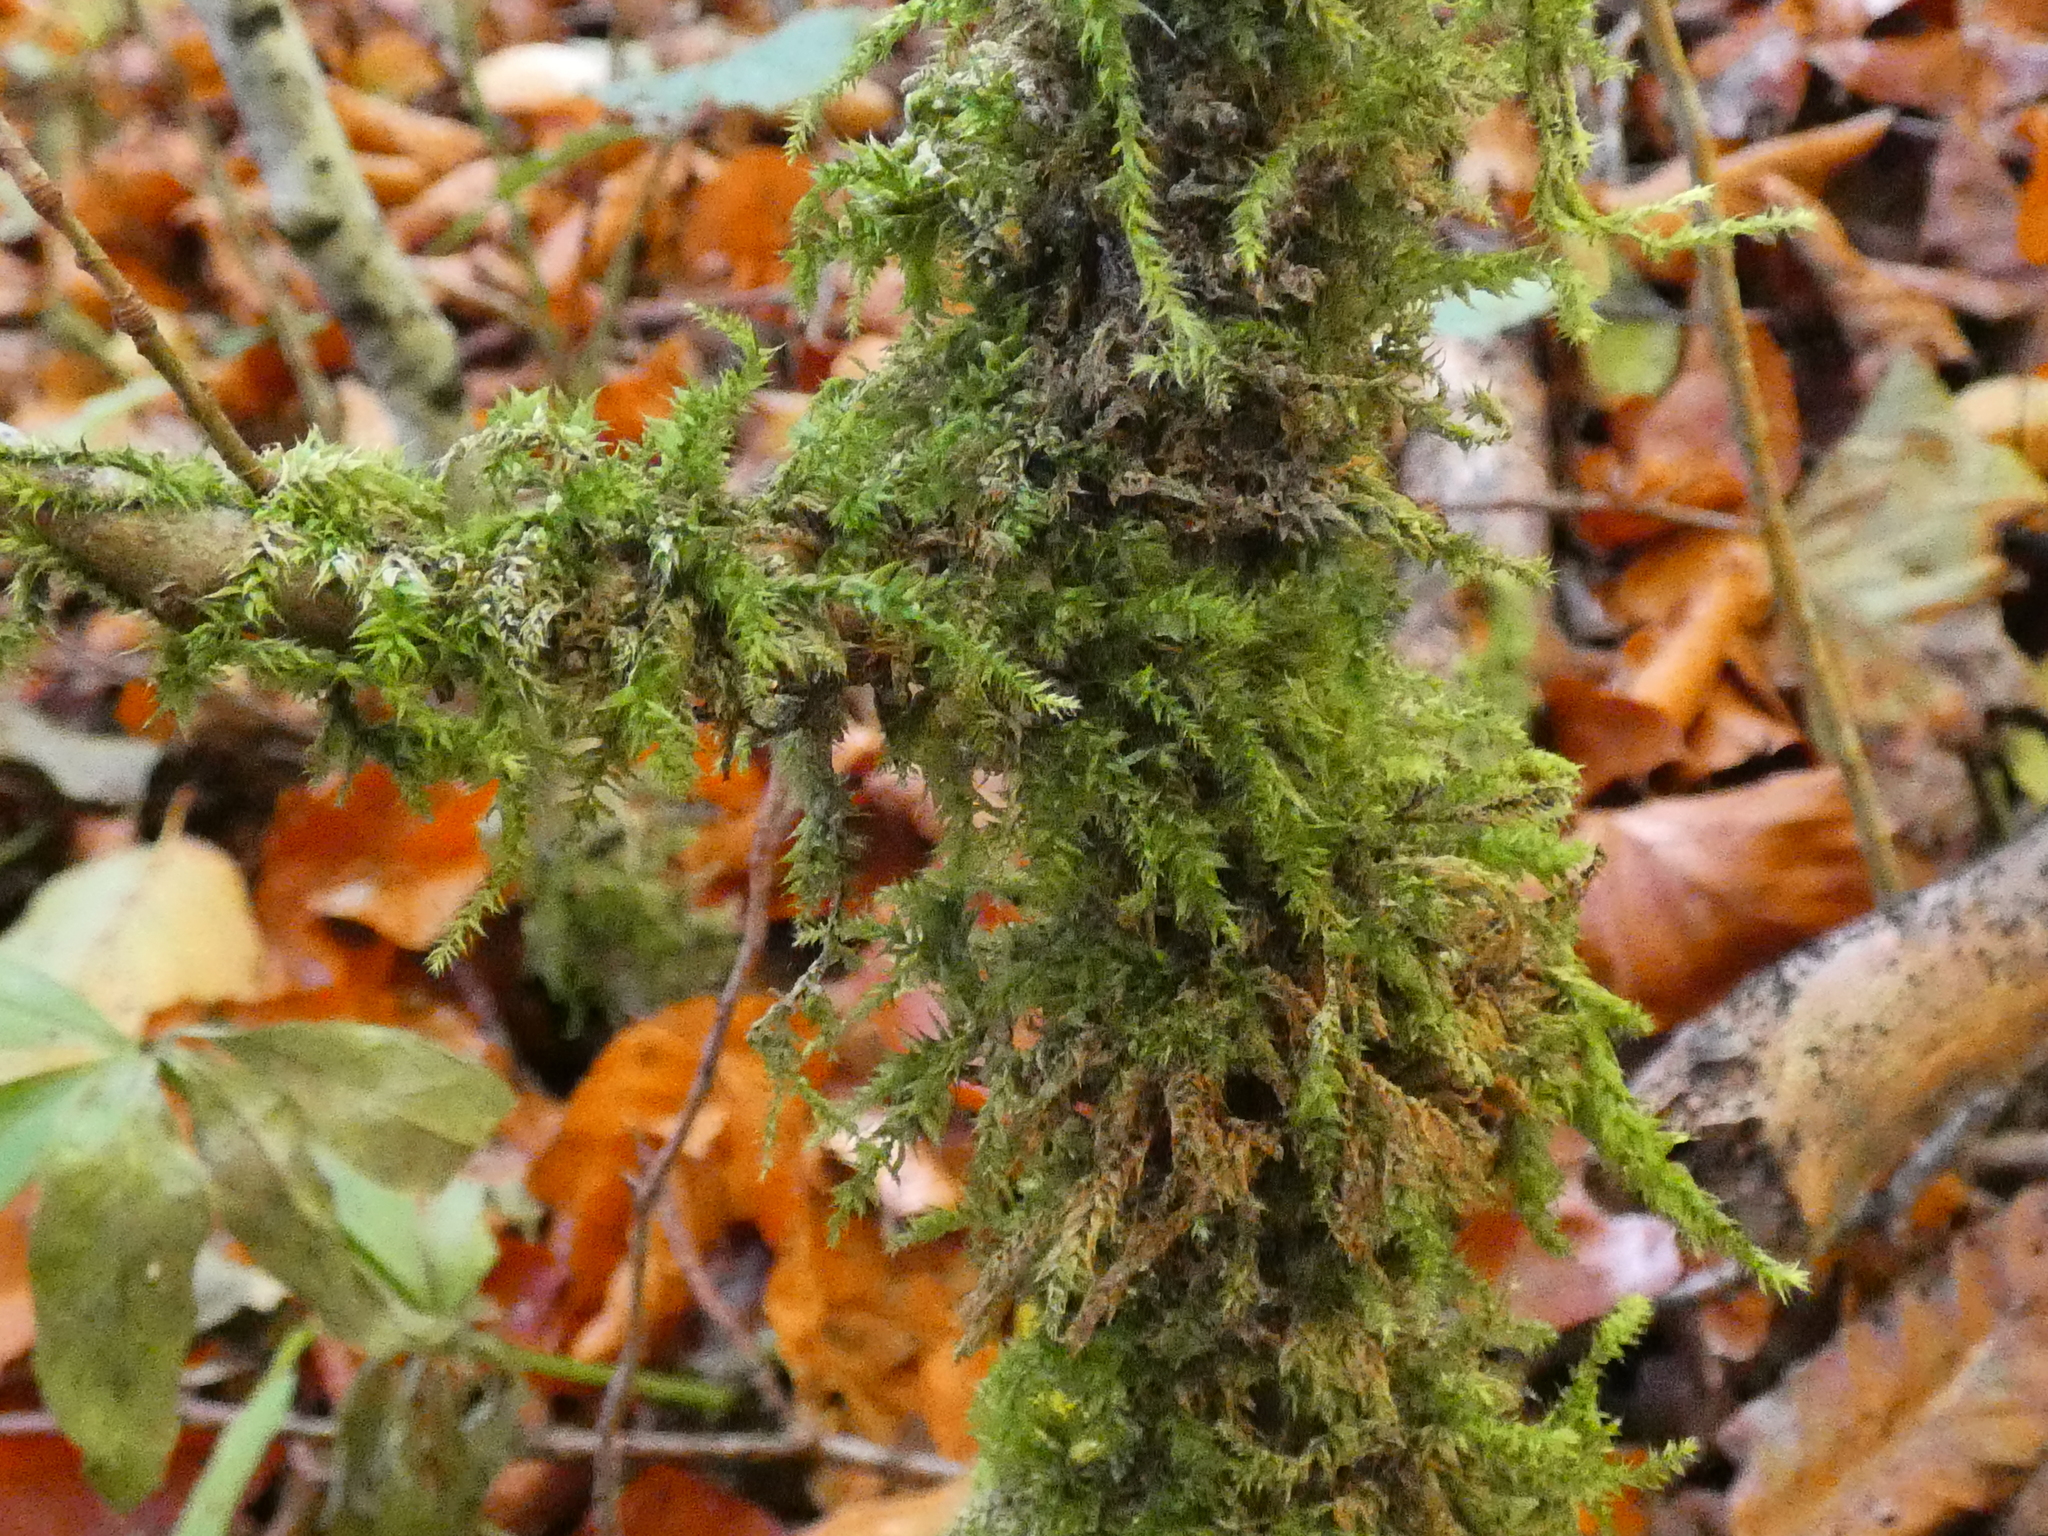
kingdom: Plantae
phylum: Bryophyta
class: Bryopsida
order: Hypnales
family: Brachytheciaceae
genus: Brachythecium
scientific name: Brachythecium rutabulum
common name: Rough-stalked feather-moss
